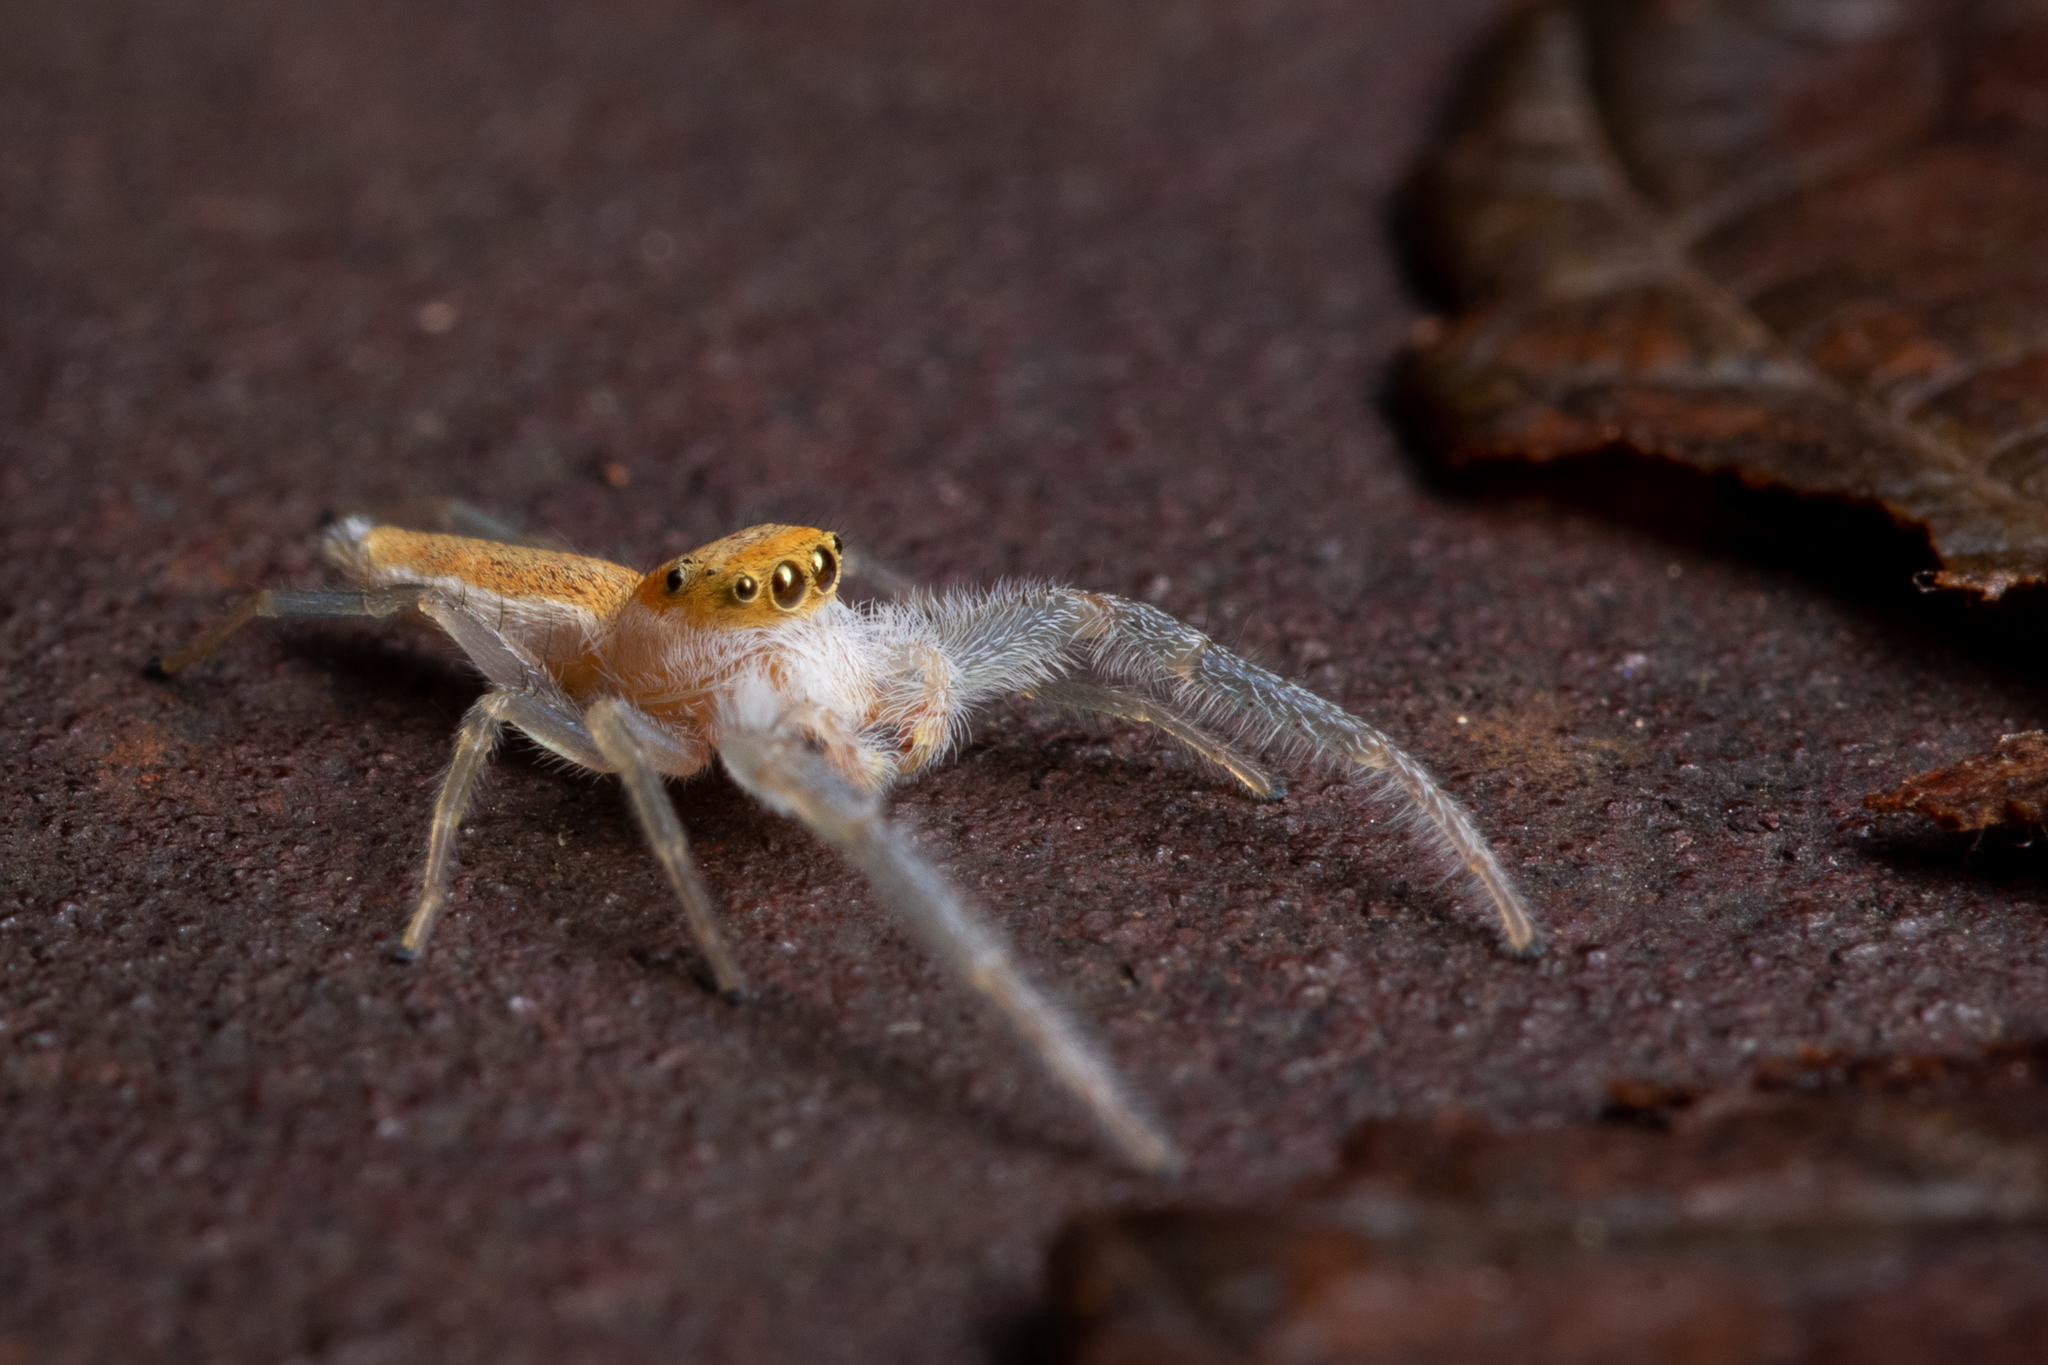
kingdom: Animalia
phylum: Arthropoda
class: Arachnida
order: Araneae
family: Salticidae
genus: Hentzia
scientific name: Hentzia mitrata
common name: White-jawed jumping spider
